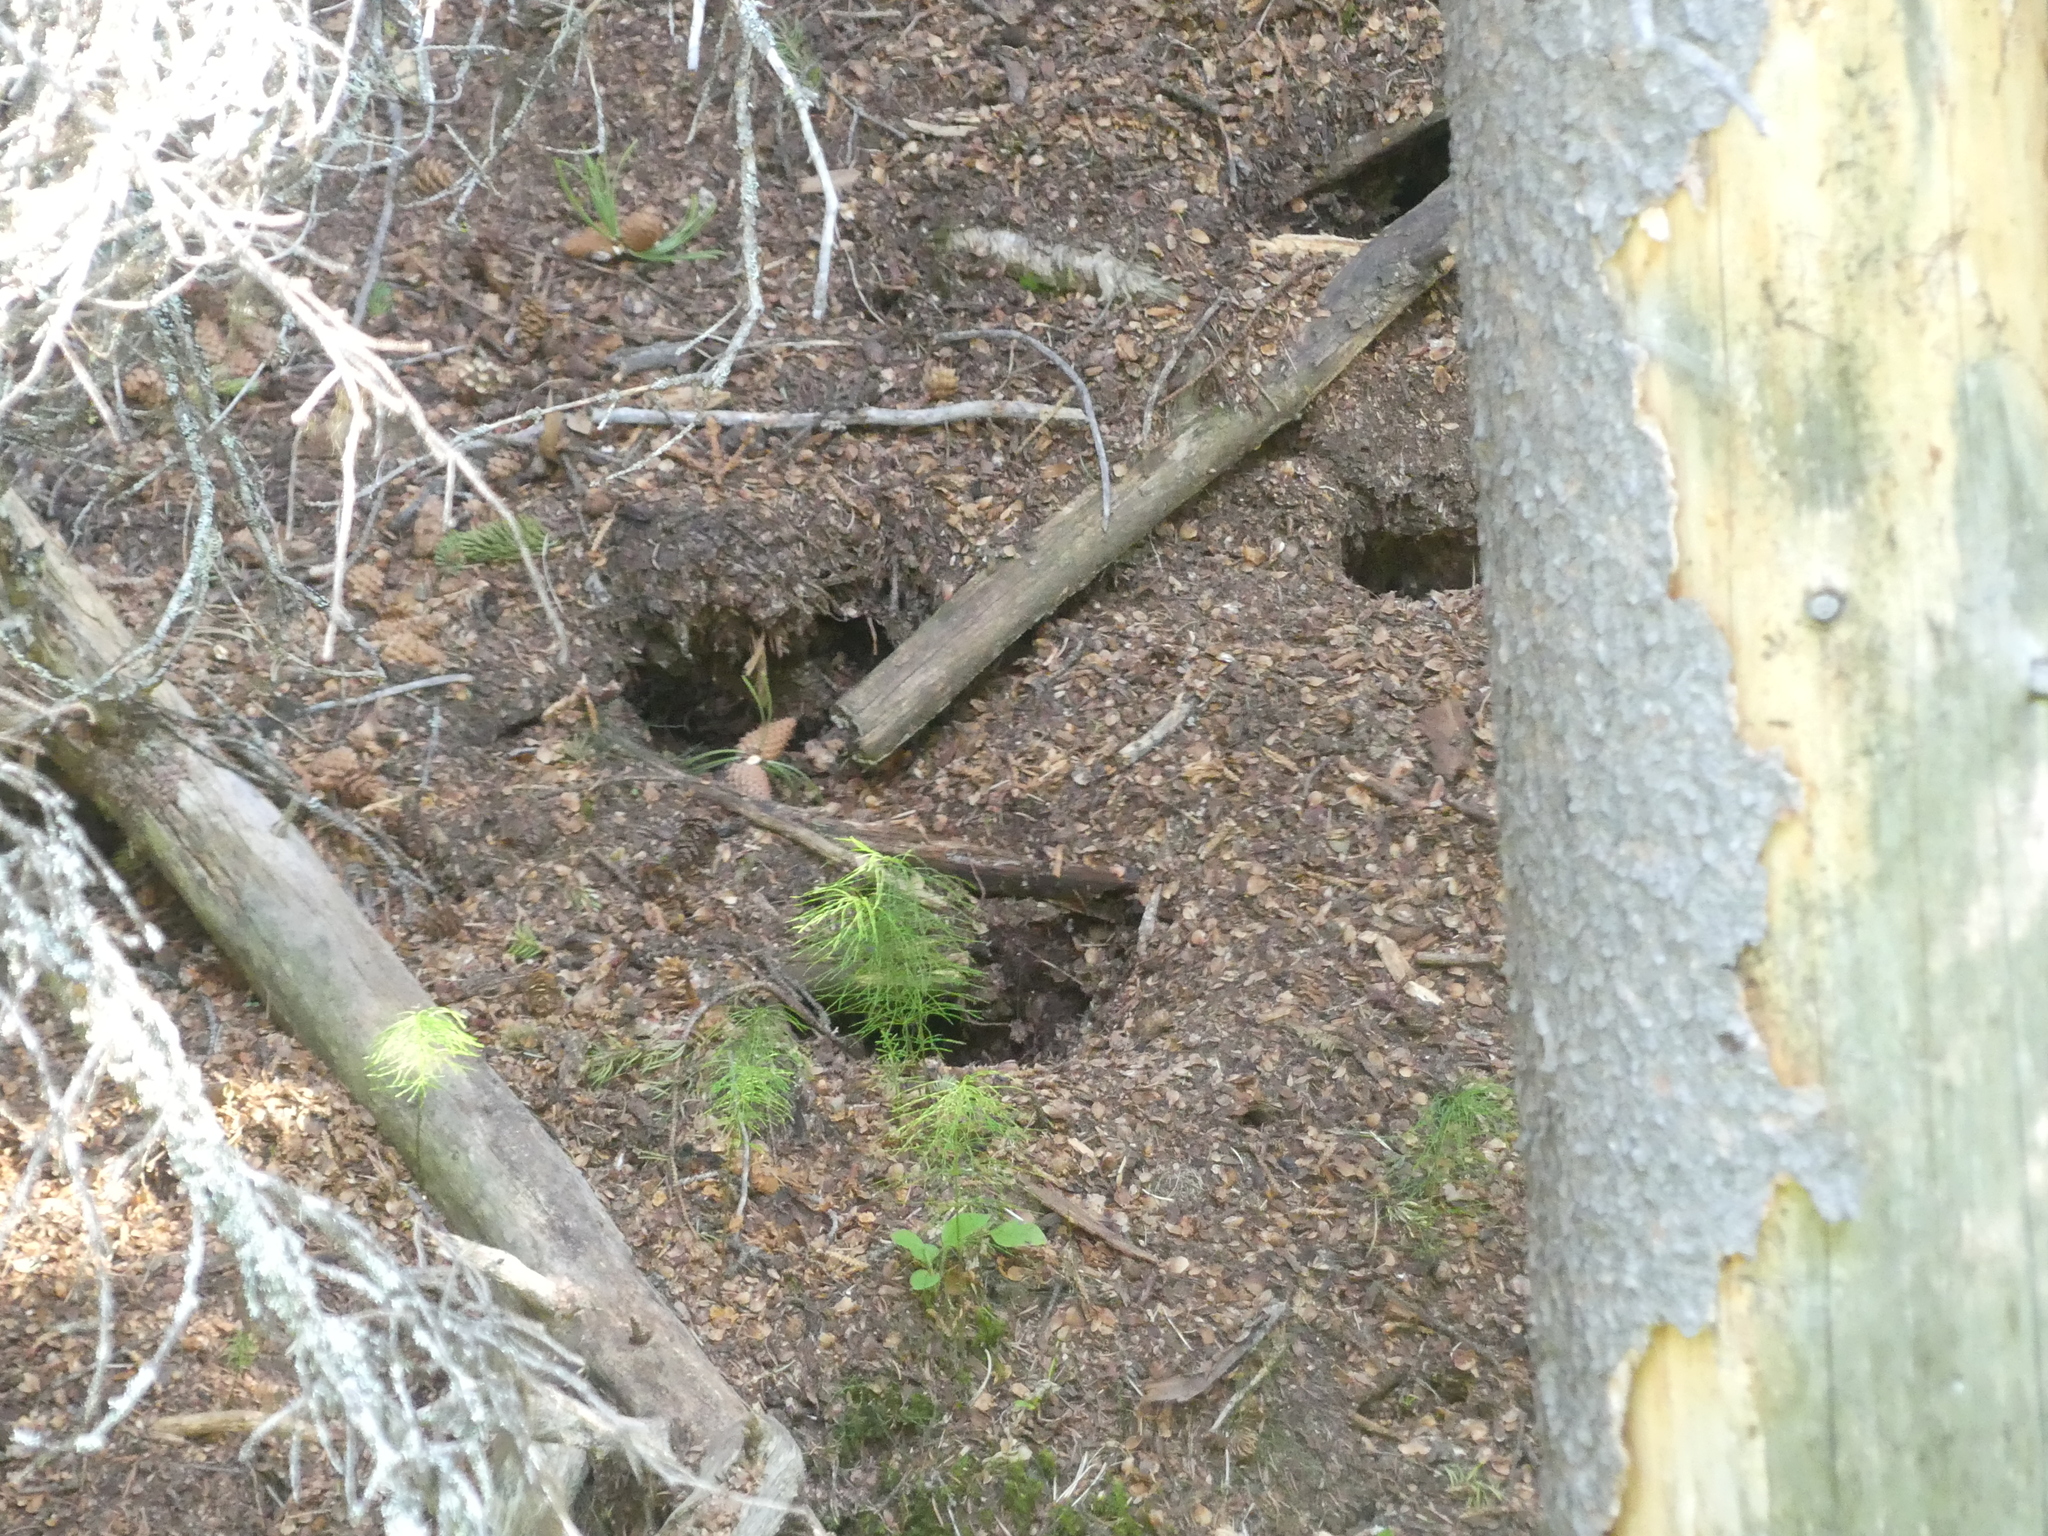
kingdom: Animalia
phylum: Chordata
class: Mammalia
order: Rodentia
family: Sciuridae
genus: Tamiasciurus
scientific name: Tamiasciurus hudsonicus
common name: Red squirrel
